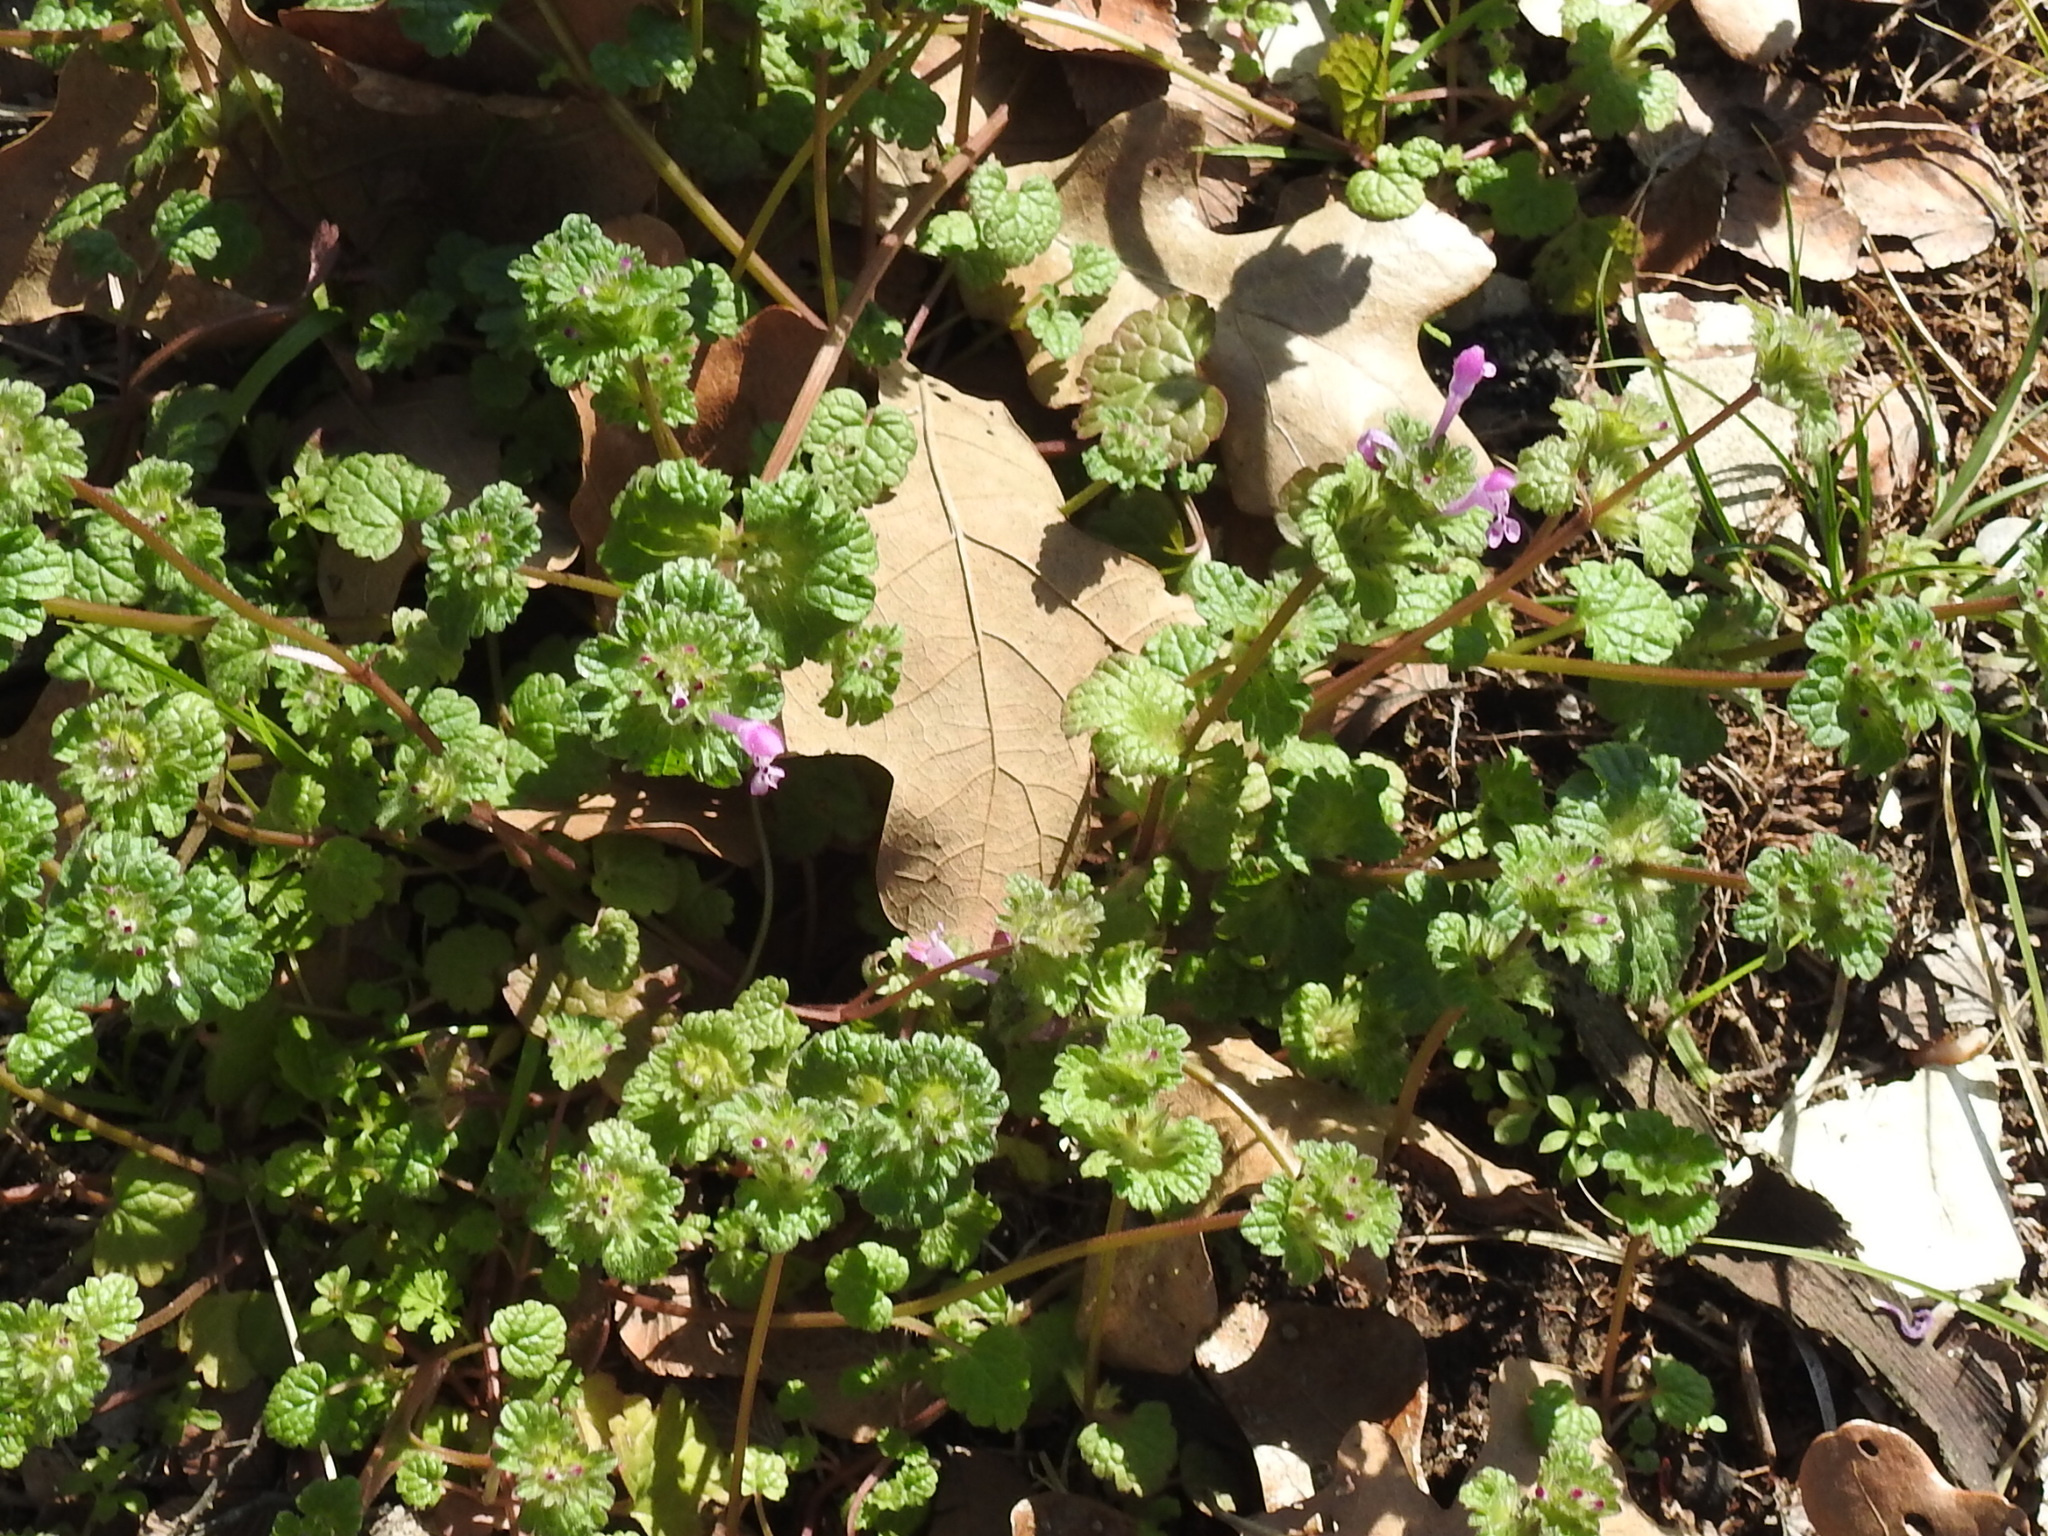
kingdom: Plantae
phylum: Tracheophyta
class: Magnoliopsida
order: Lamiales
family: Lamiaceae
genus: Lamium
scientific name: Lamium amplexicaule
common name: Henbit dead-nettle
